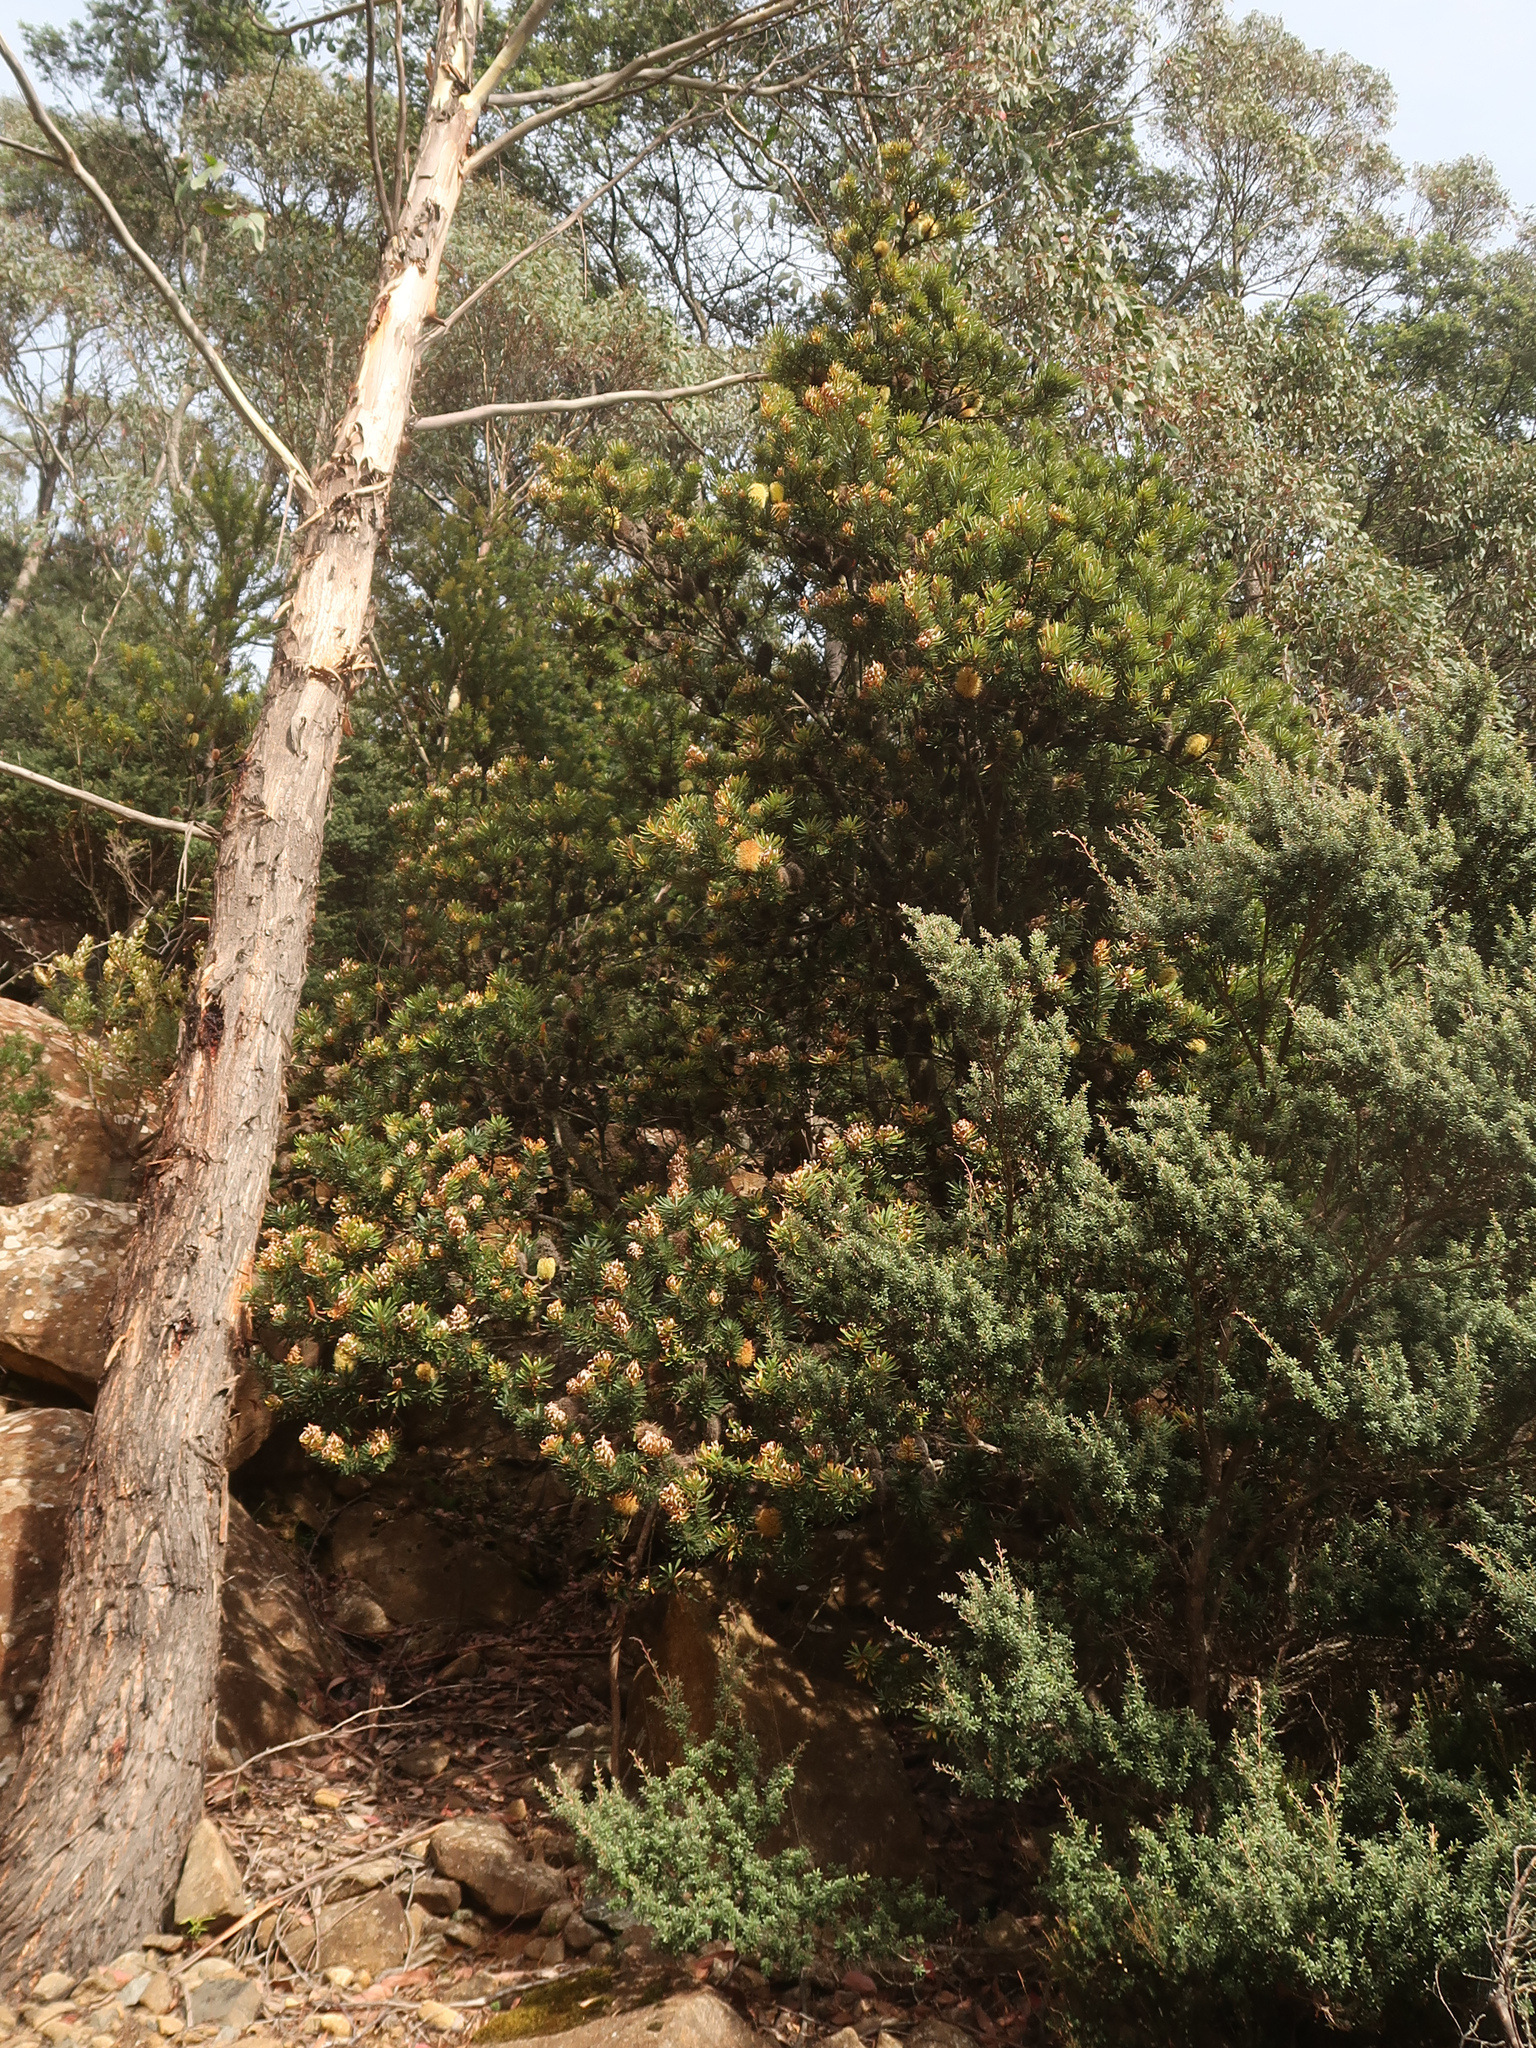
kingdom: Plantae
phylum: Tracheophyta
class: Magnoliopsida
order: Proteales
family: Proteaceae
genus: Banksia
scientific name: Banksia marginata
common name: Silver banksia
